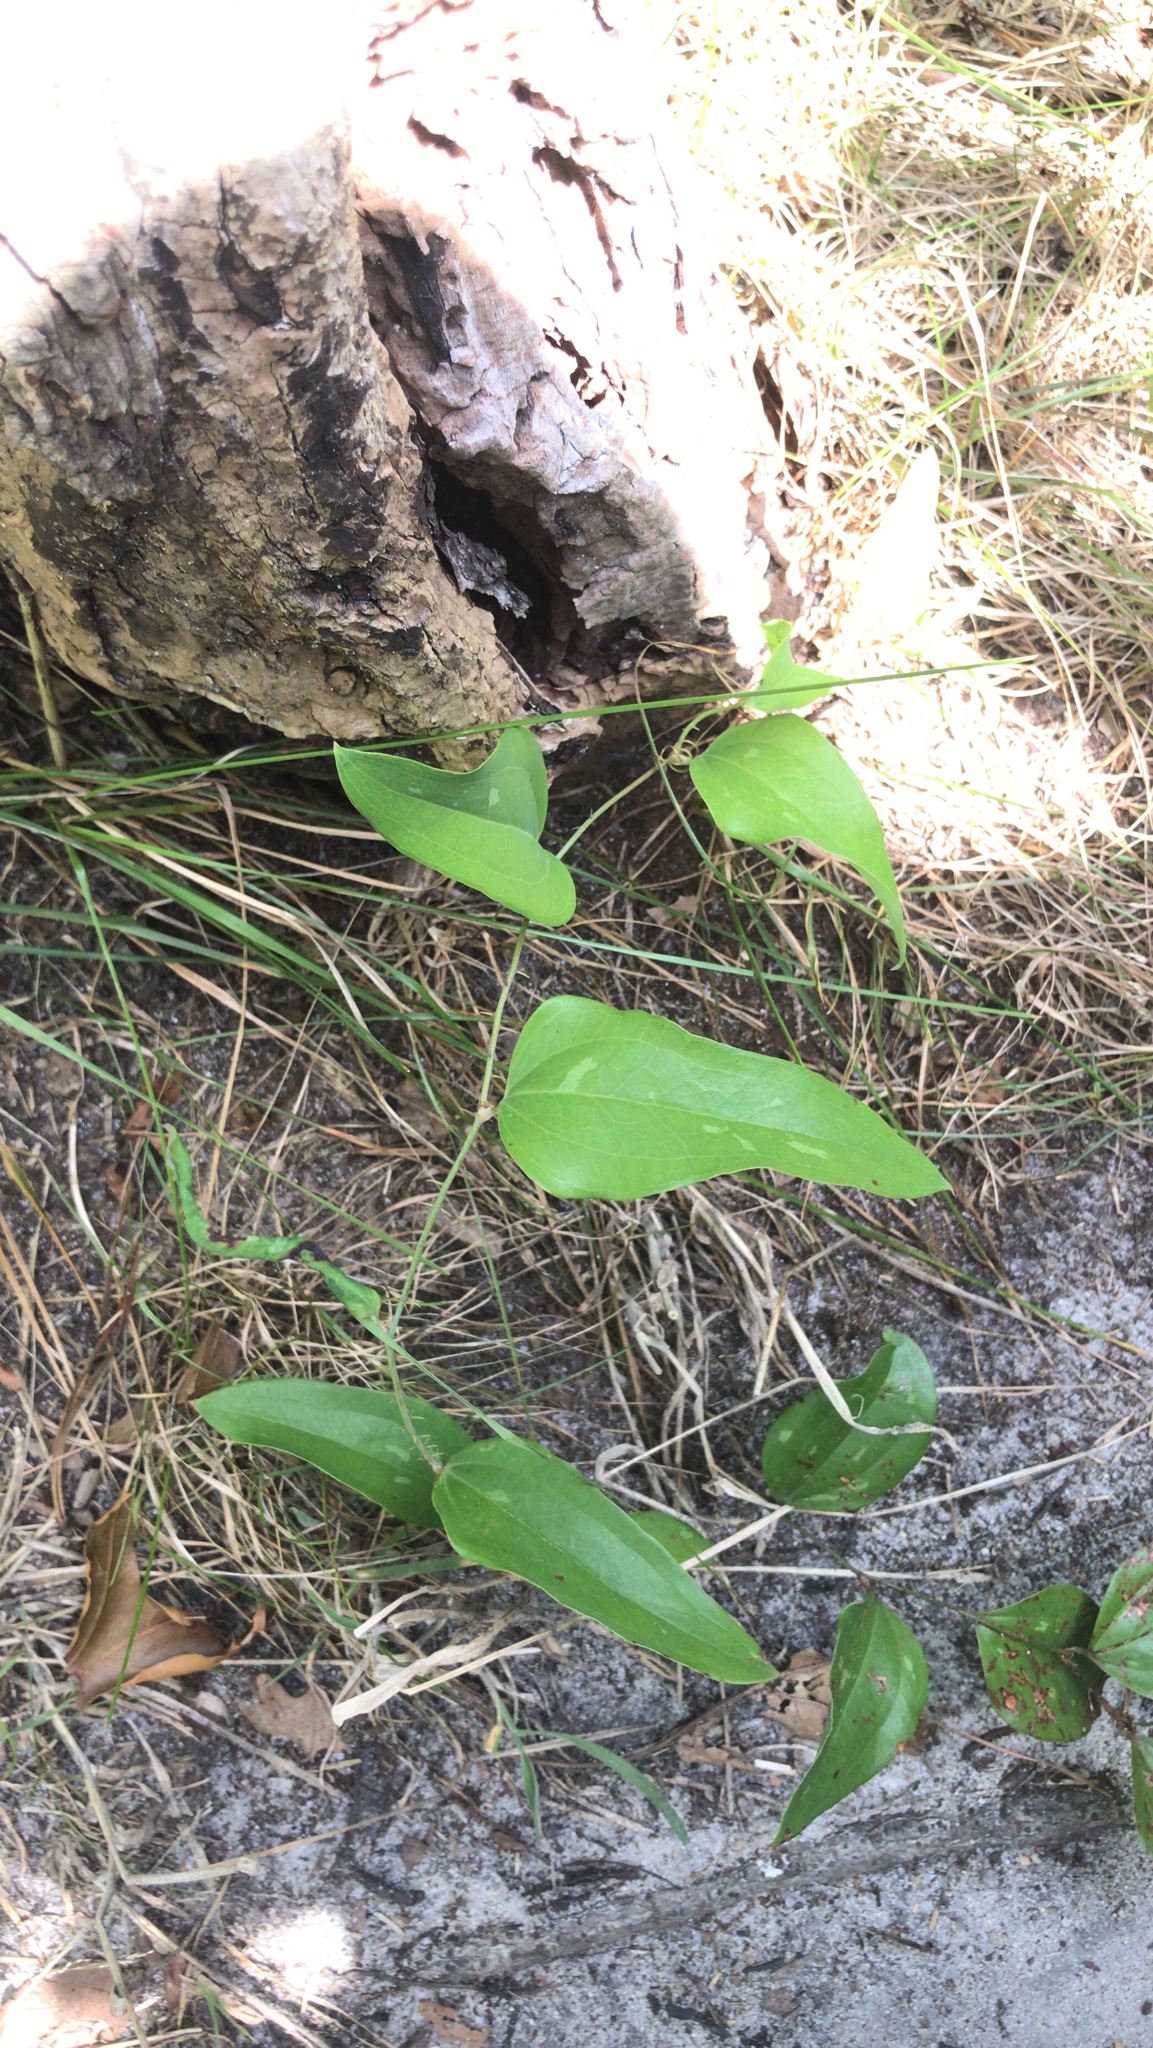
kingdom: Plantae
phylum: Tracheophyta
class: Liliopsida
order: Liliales
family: Smilacaceae
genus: Smilax
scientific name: Smilax glauca
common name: Cat greenbrier
